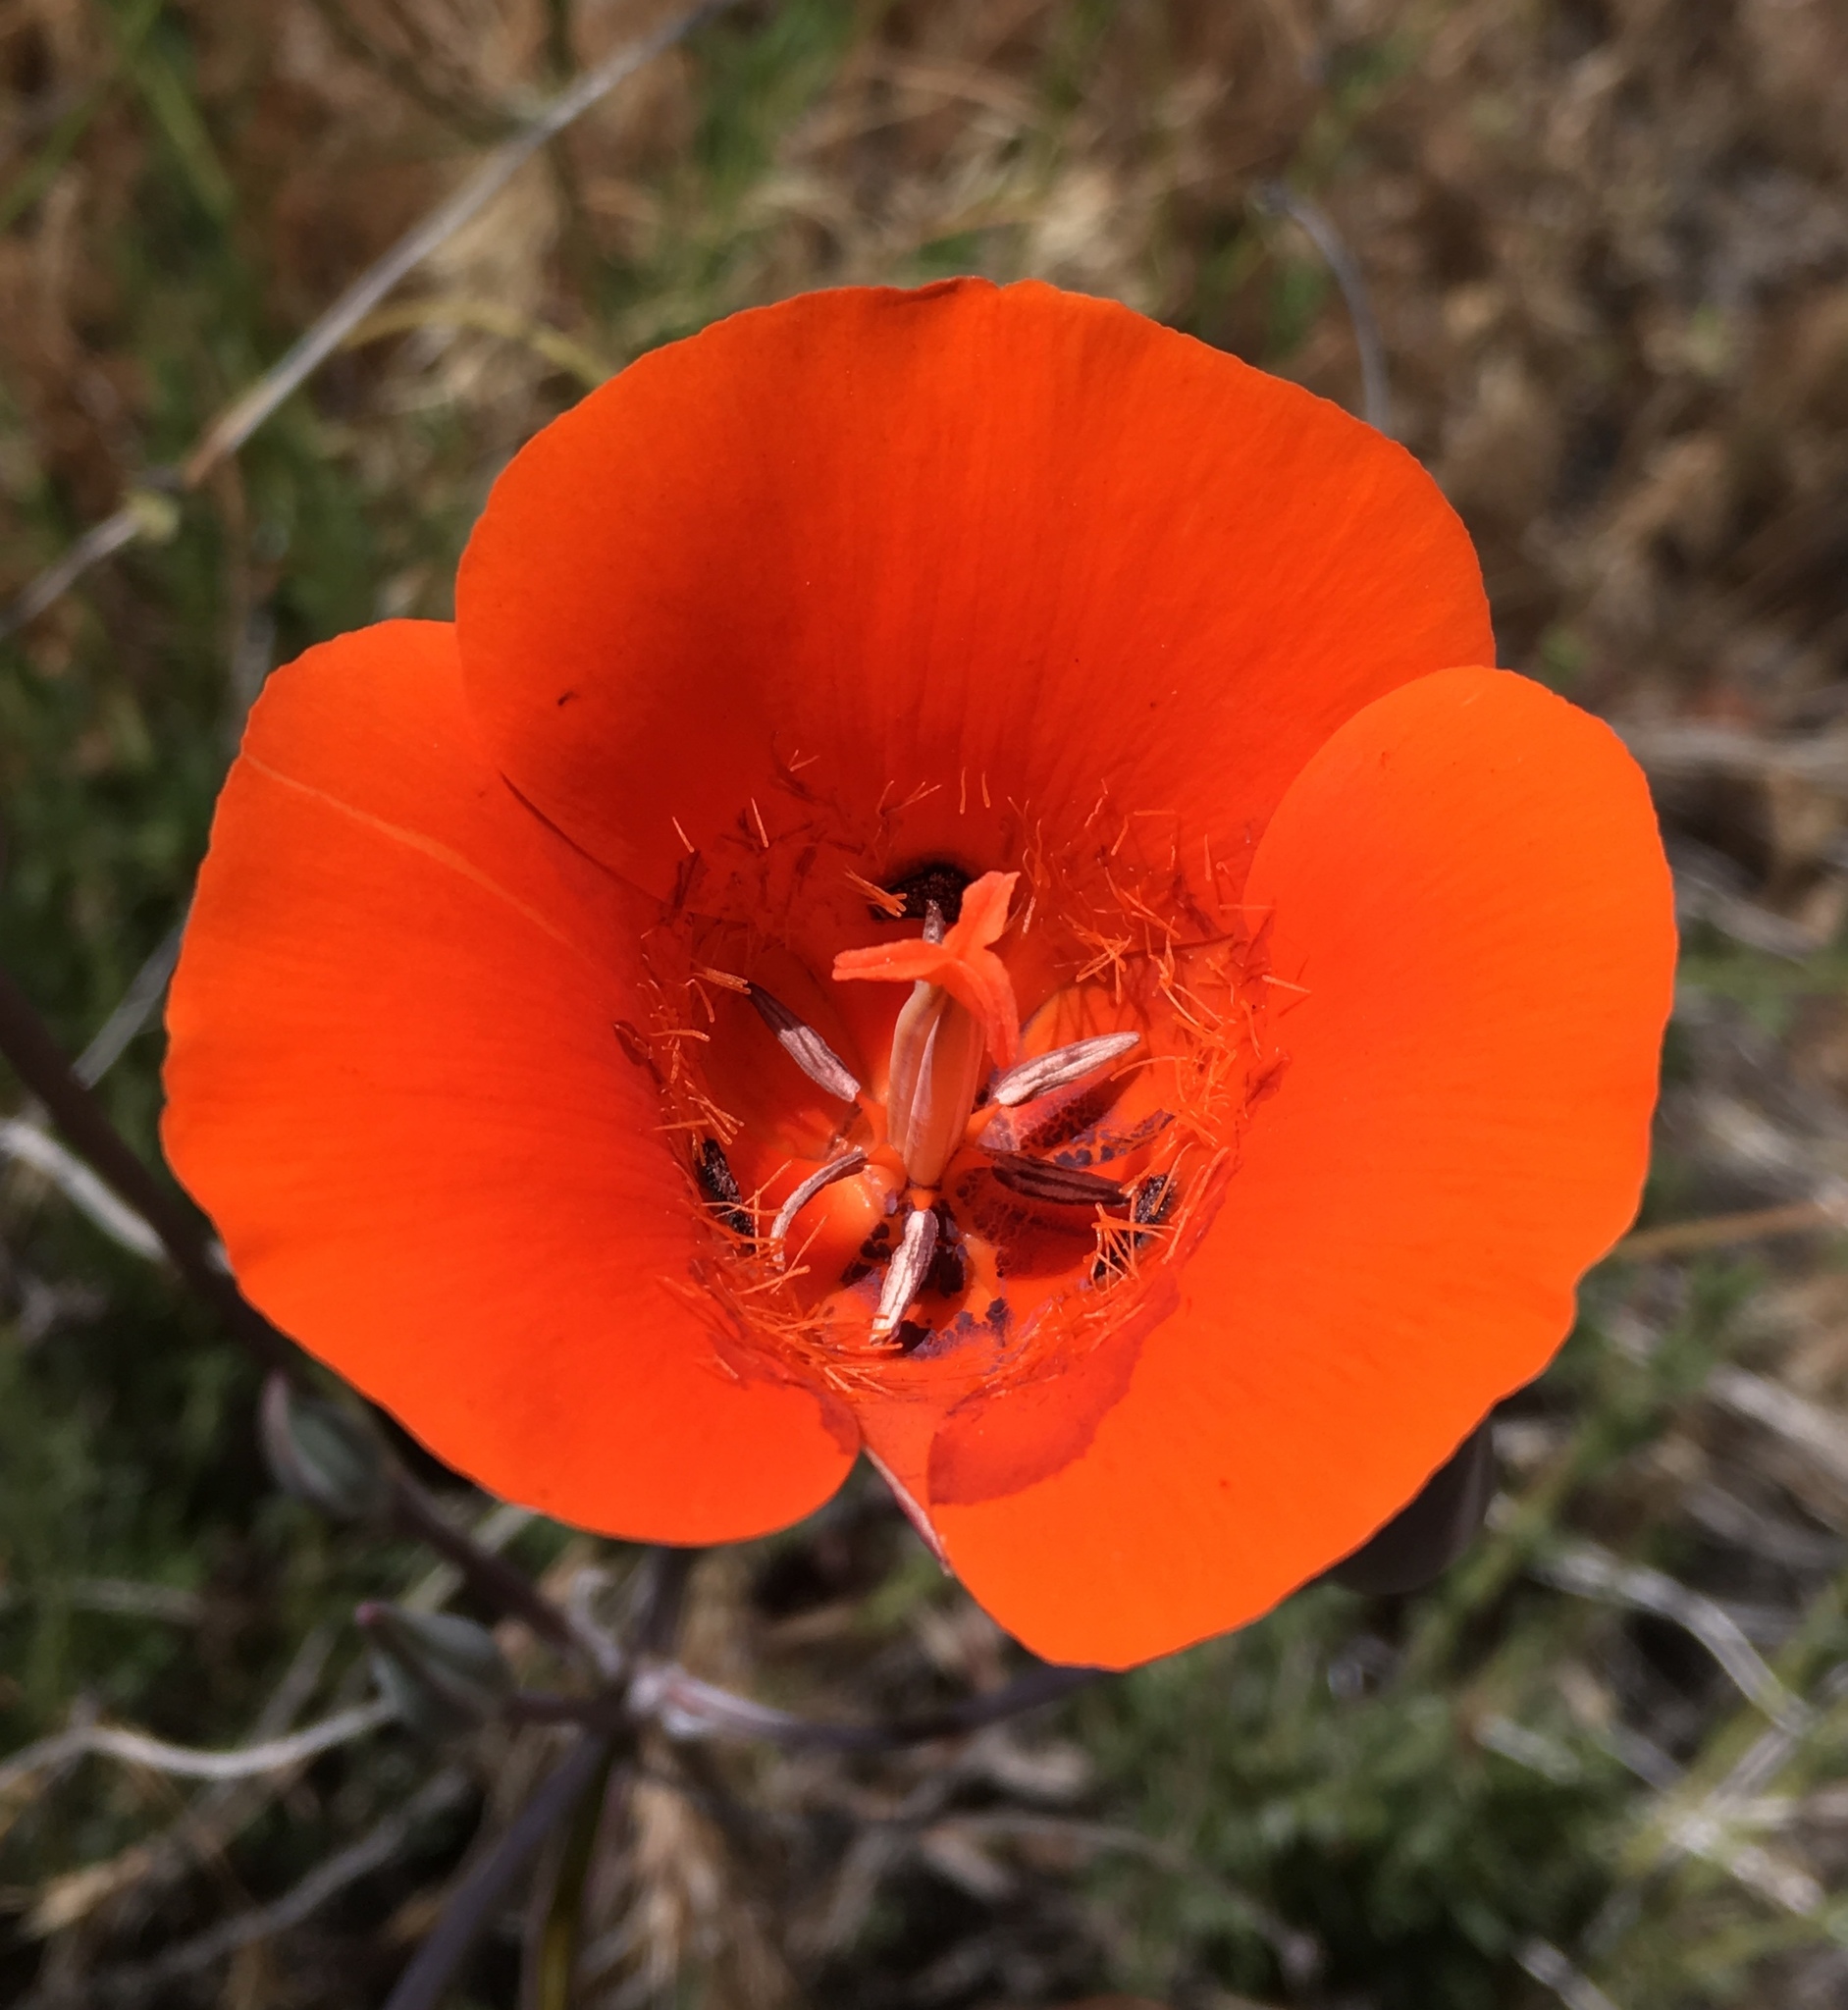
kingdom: Plantae
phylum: Tracheophyta
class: Liliopsida
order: Liliales
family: Liliaceae
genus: Calochortus
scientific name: Calochortus kennedyi
